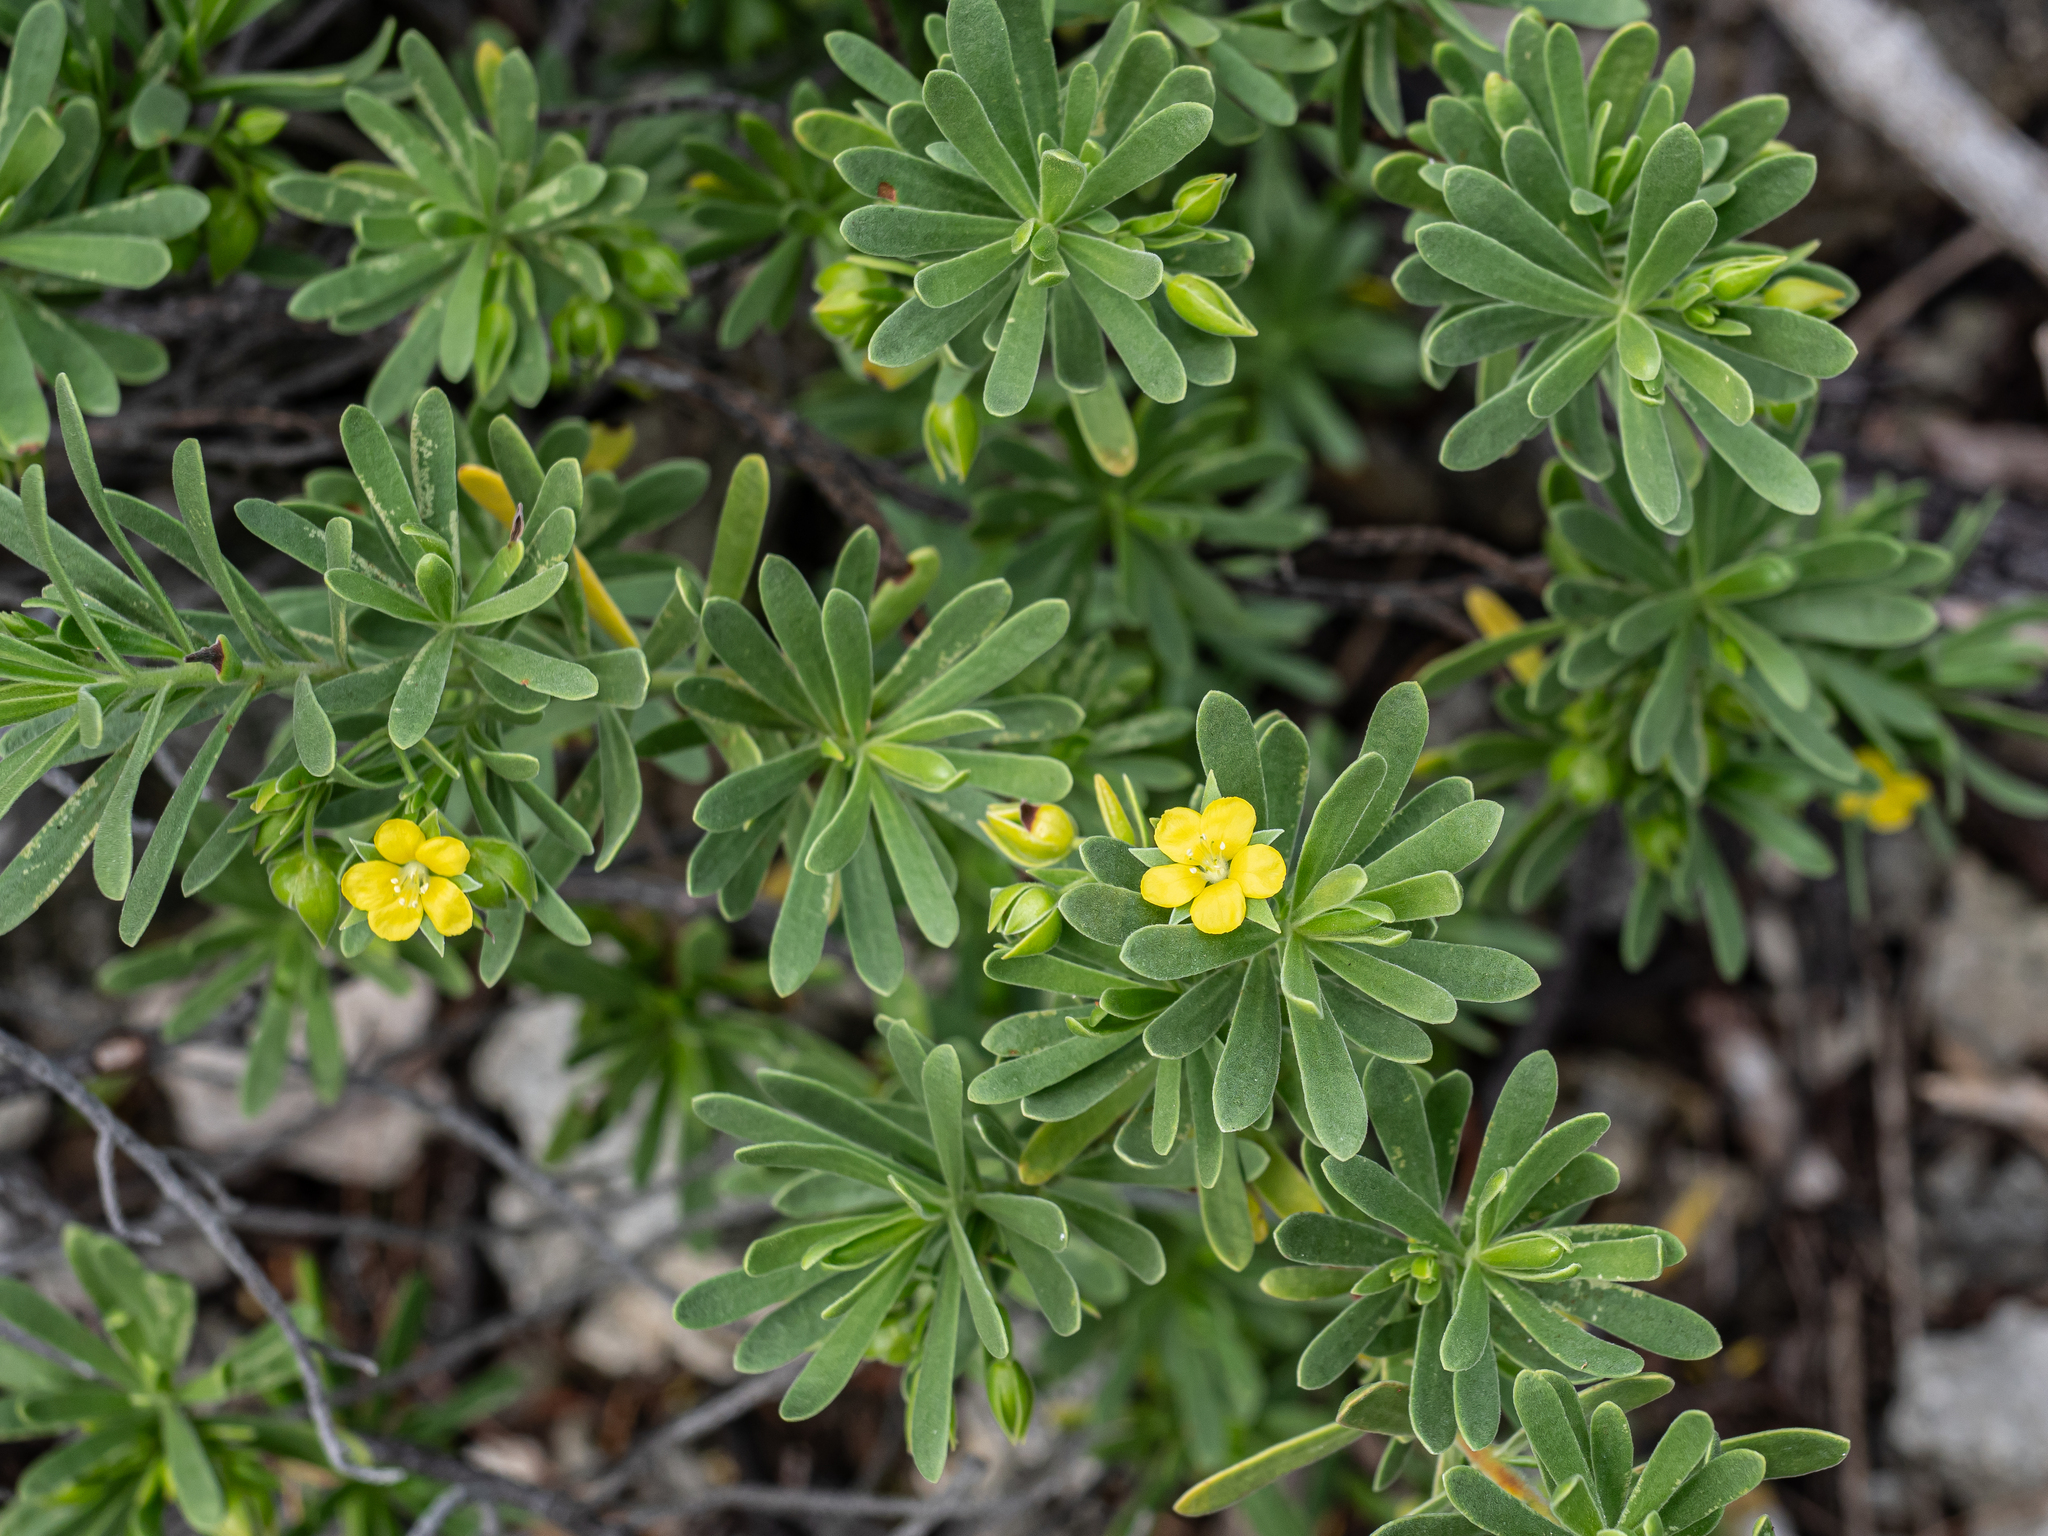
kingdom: Plantae
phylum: Tracheophyta
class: Magnoliopsida
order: Fabales
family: Surianaceae
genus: Suriana
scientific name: Suriana maritima
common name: Bay-cedar
